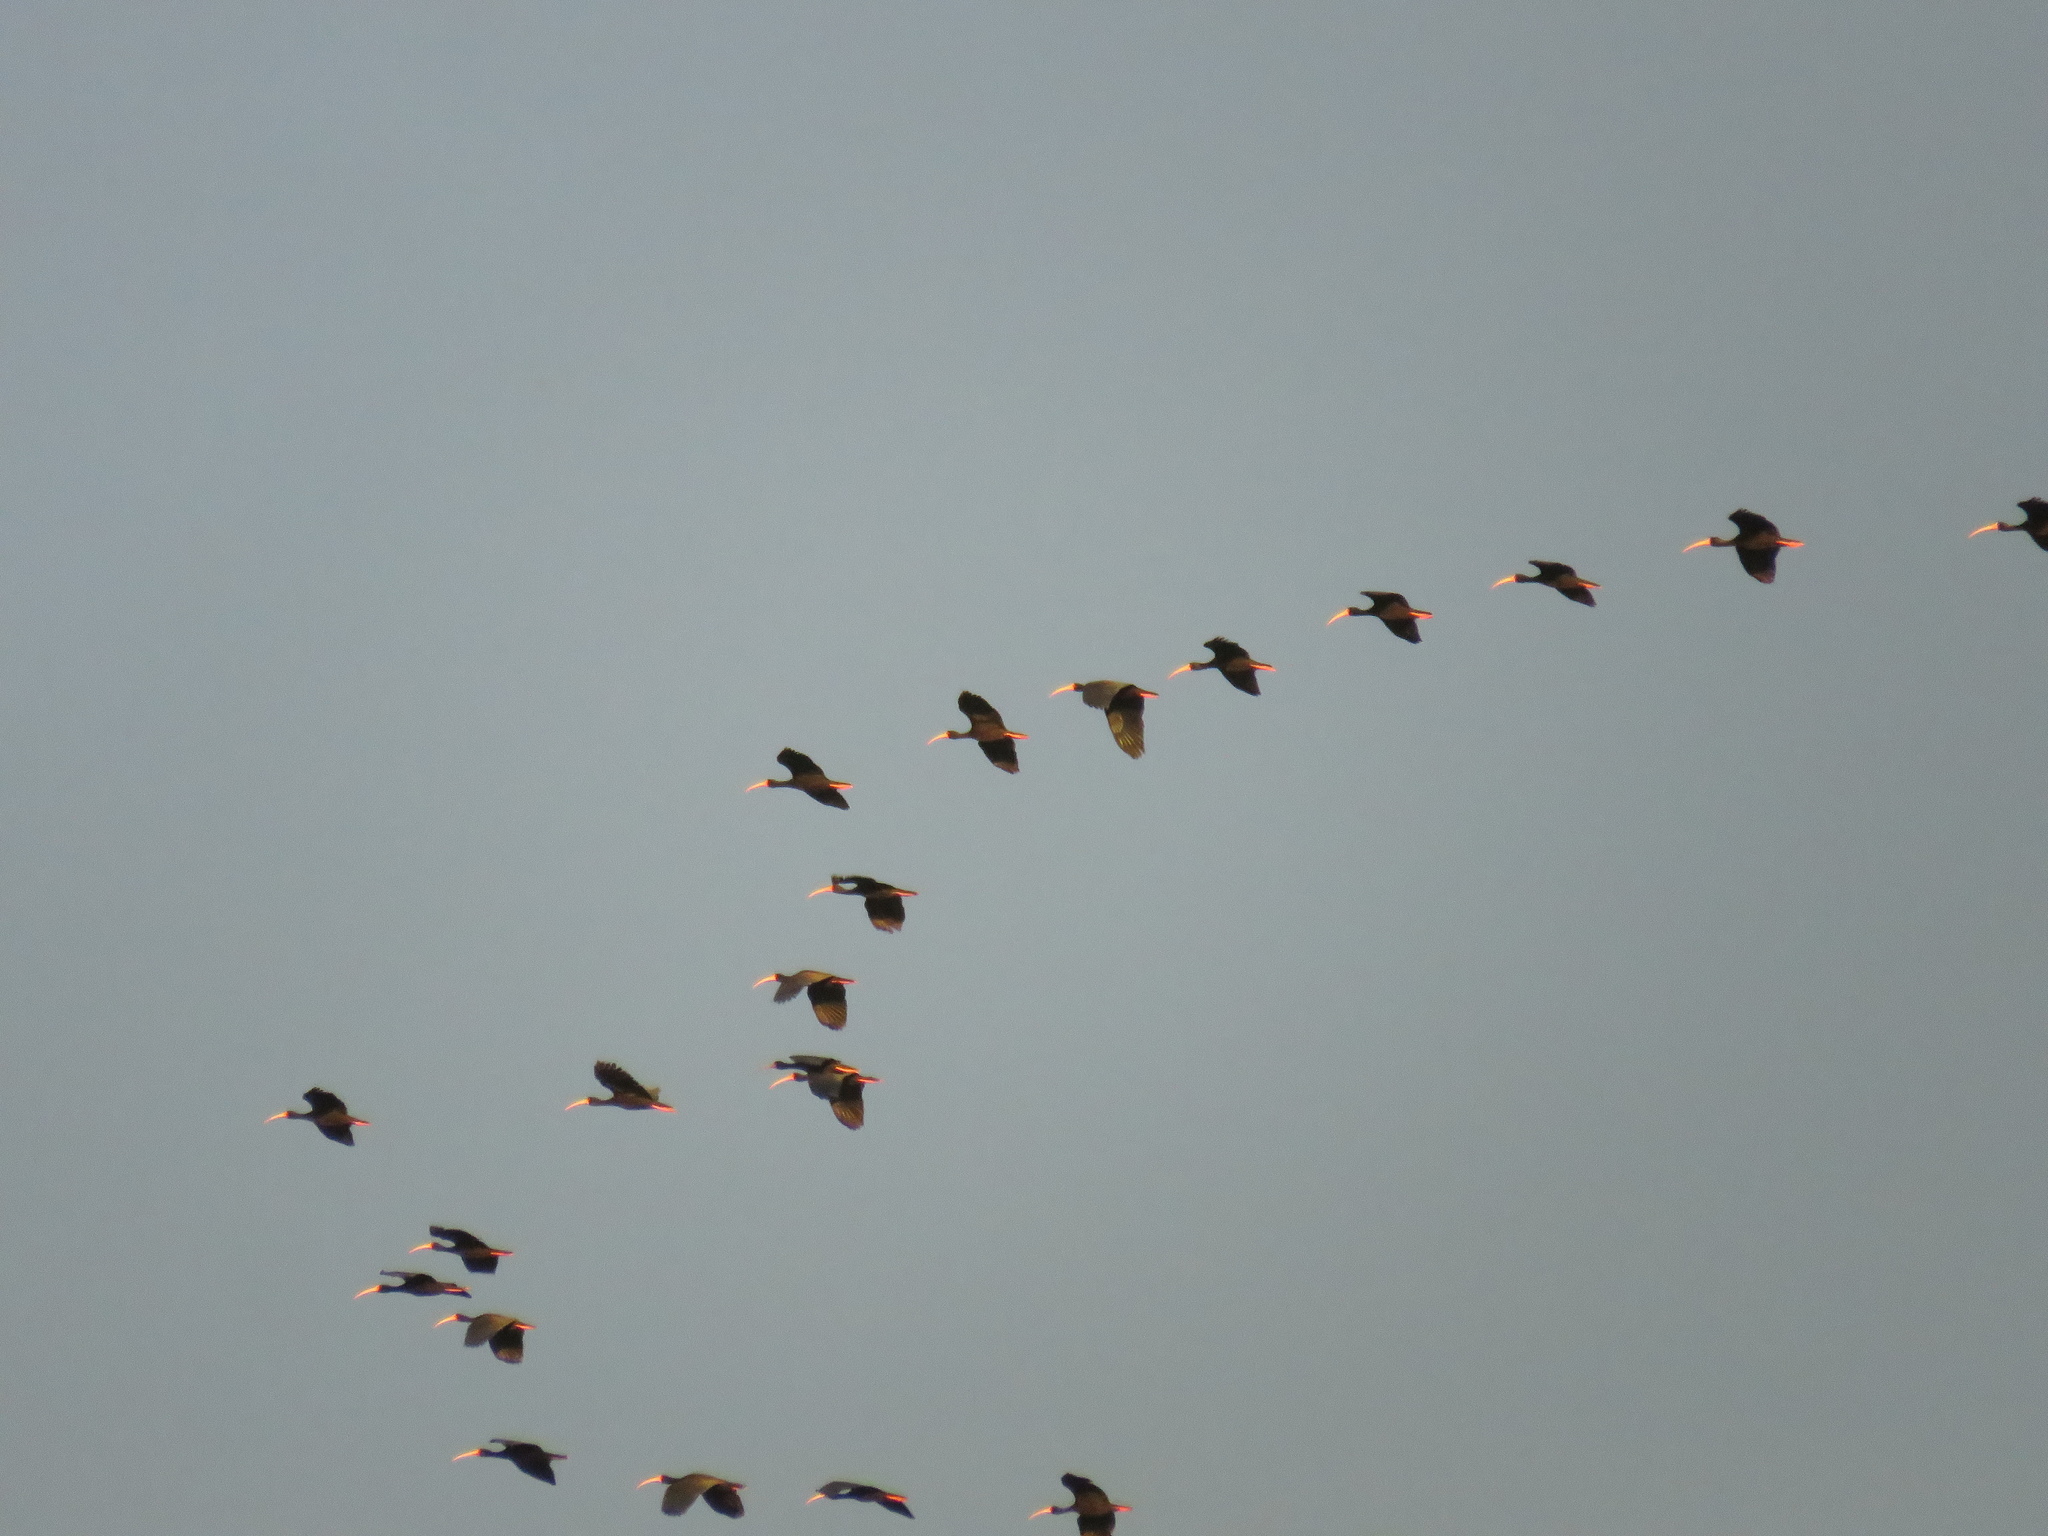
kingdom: Animalia
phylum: Chordata
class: Aves
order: Pelecaniformes
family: Threskiornithidae
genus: Phimosus
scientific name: Phimosus infuscatus
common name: Bare-faced ibis
